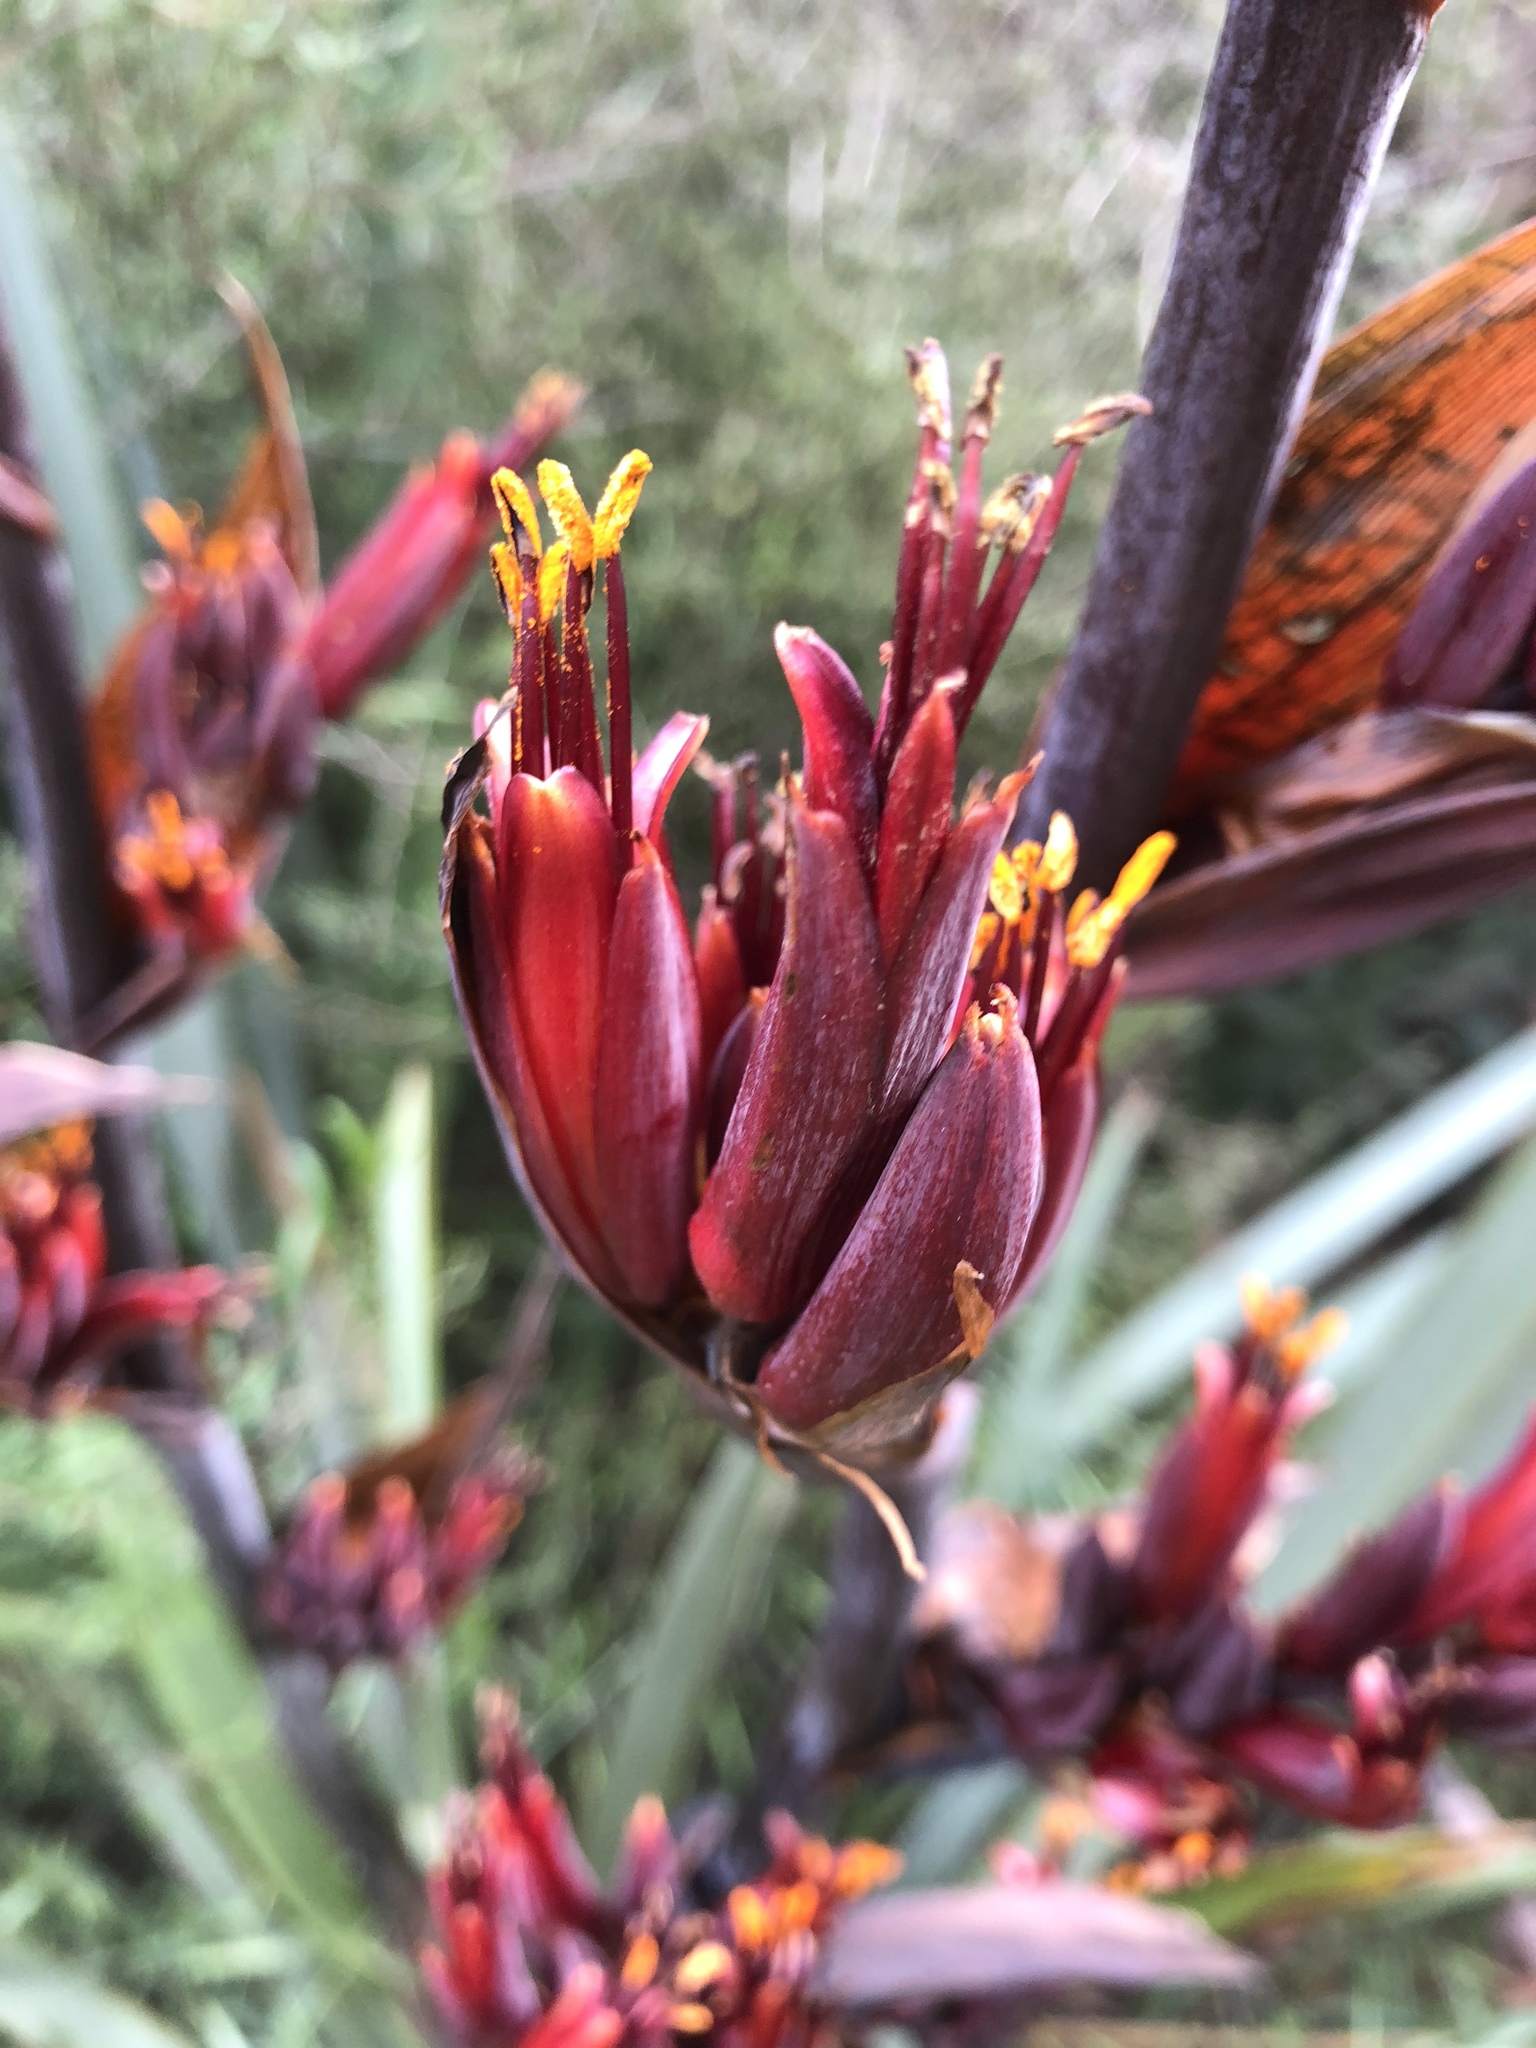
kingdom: Plantae
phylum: Tracheophyta
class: Liliopsida
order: Asparagales
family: Asphodelaceae
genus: Phormium
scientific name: Phormium tenax
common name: New zealand flax
